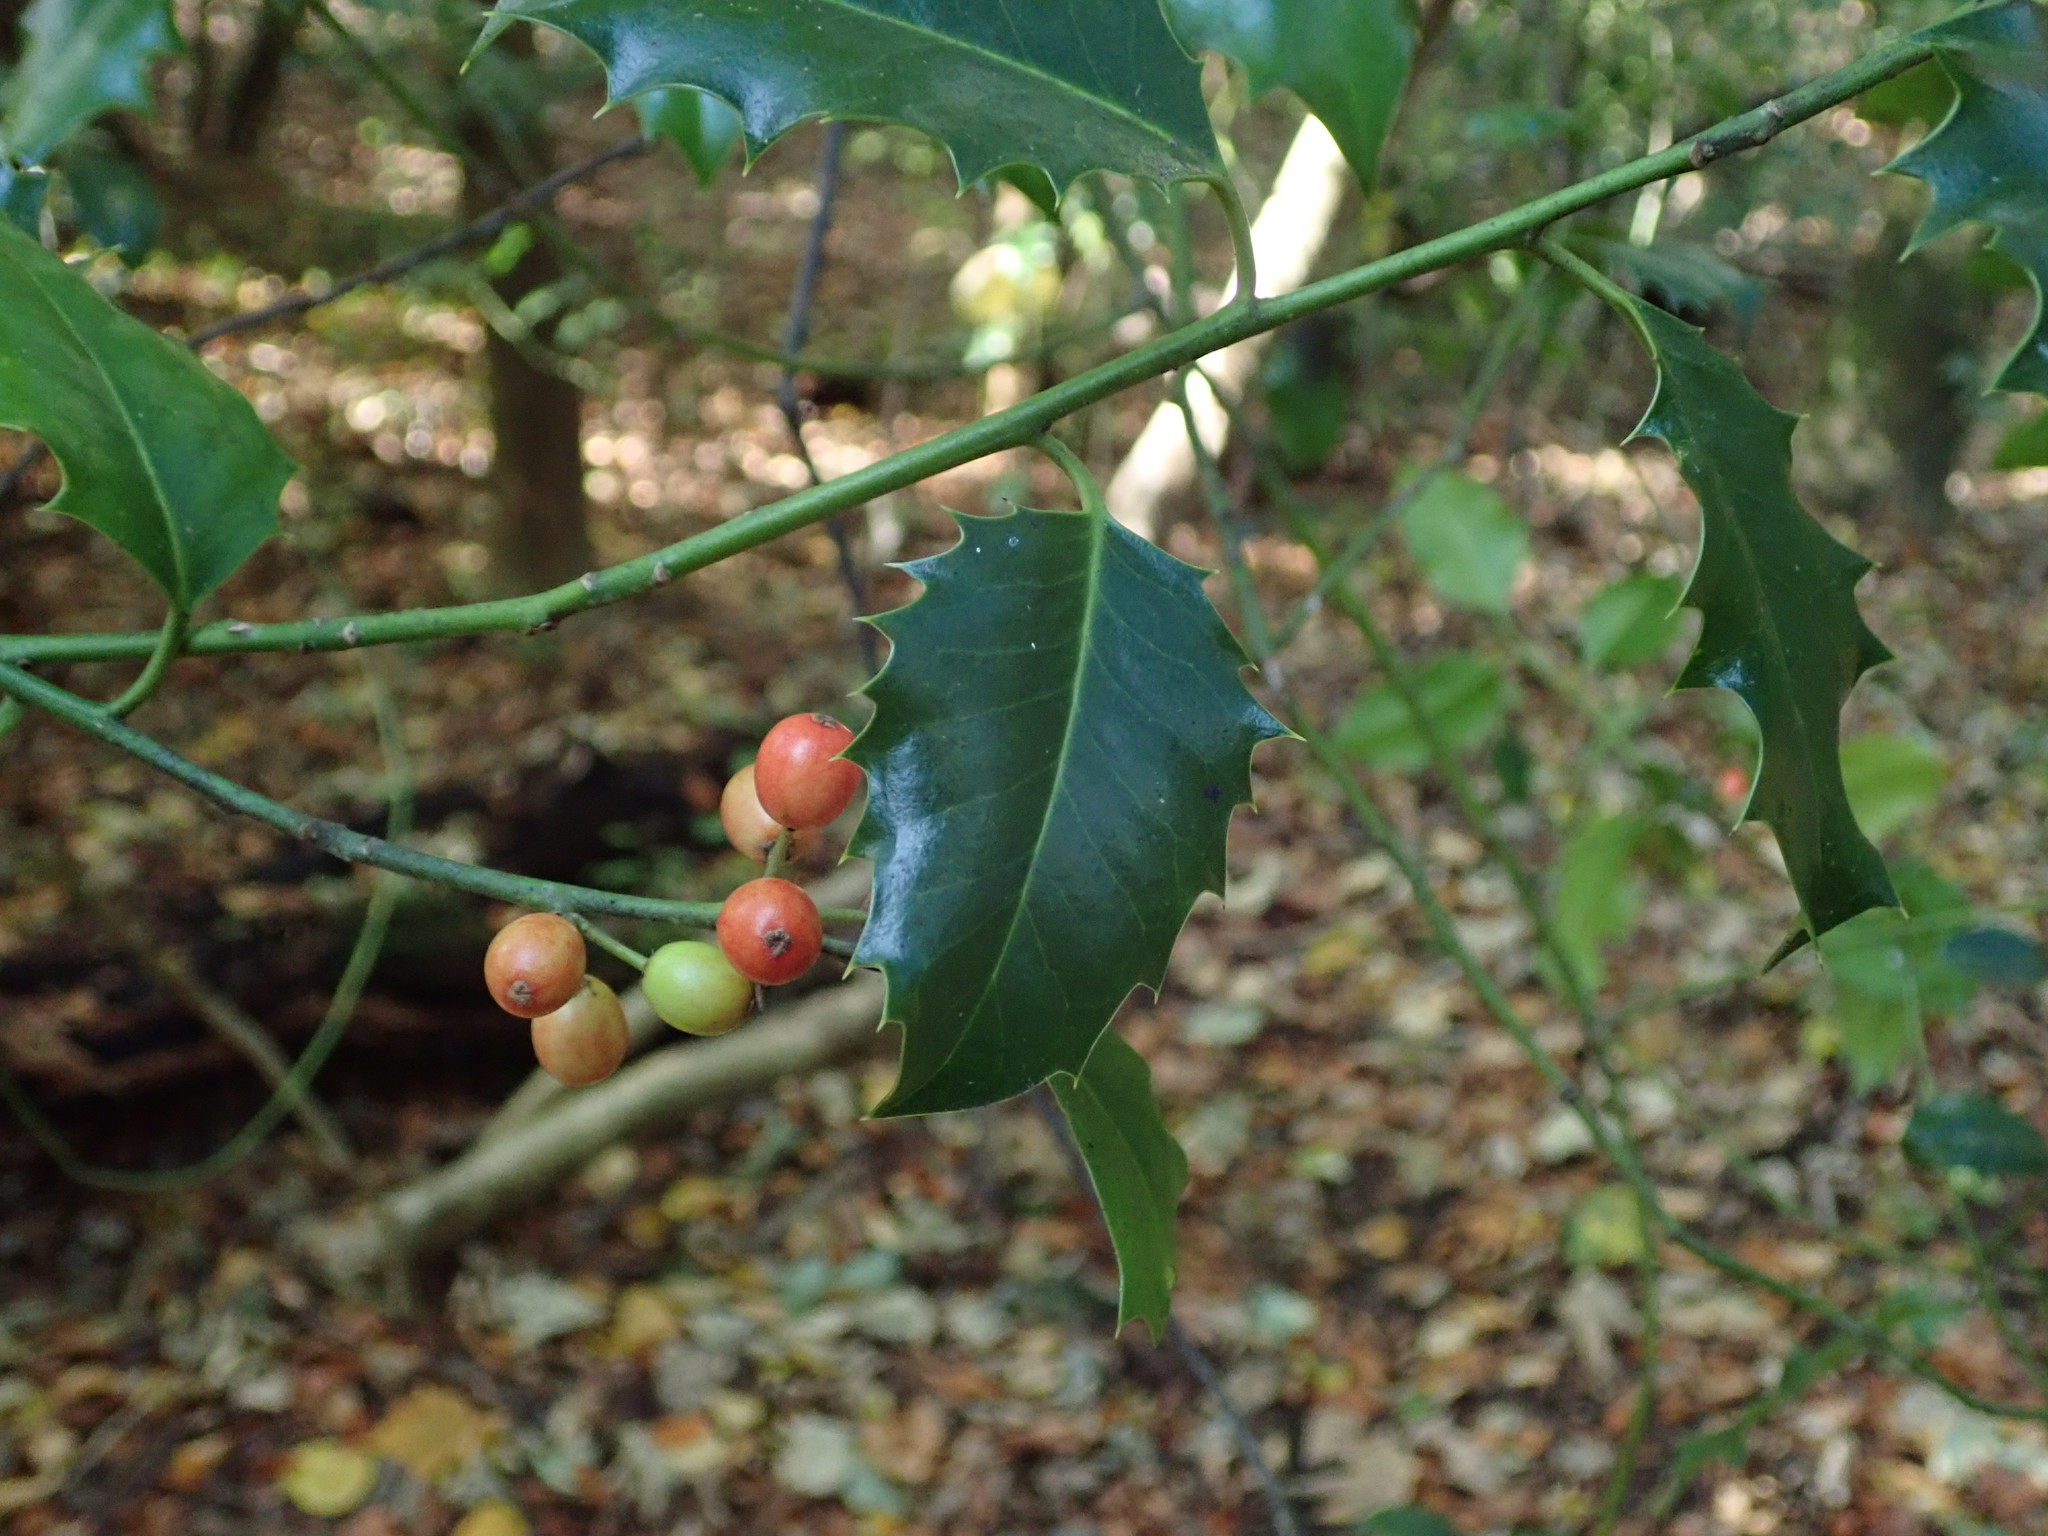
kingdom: Plantae
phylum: Tracheophyta
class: Magnoliopsida
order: Aquifoliales
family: Aquifoliaceae
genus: Ilex
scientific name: Ilex aquifolium
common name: English holly
